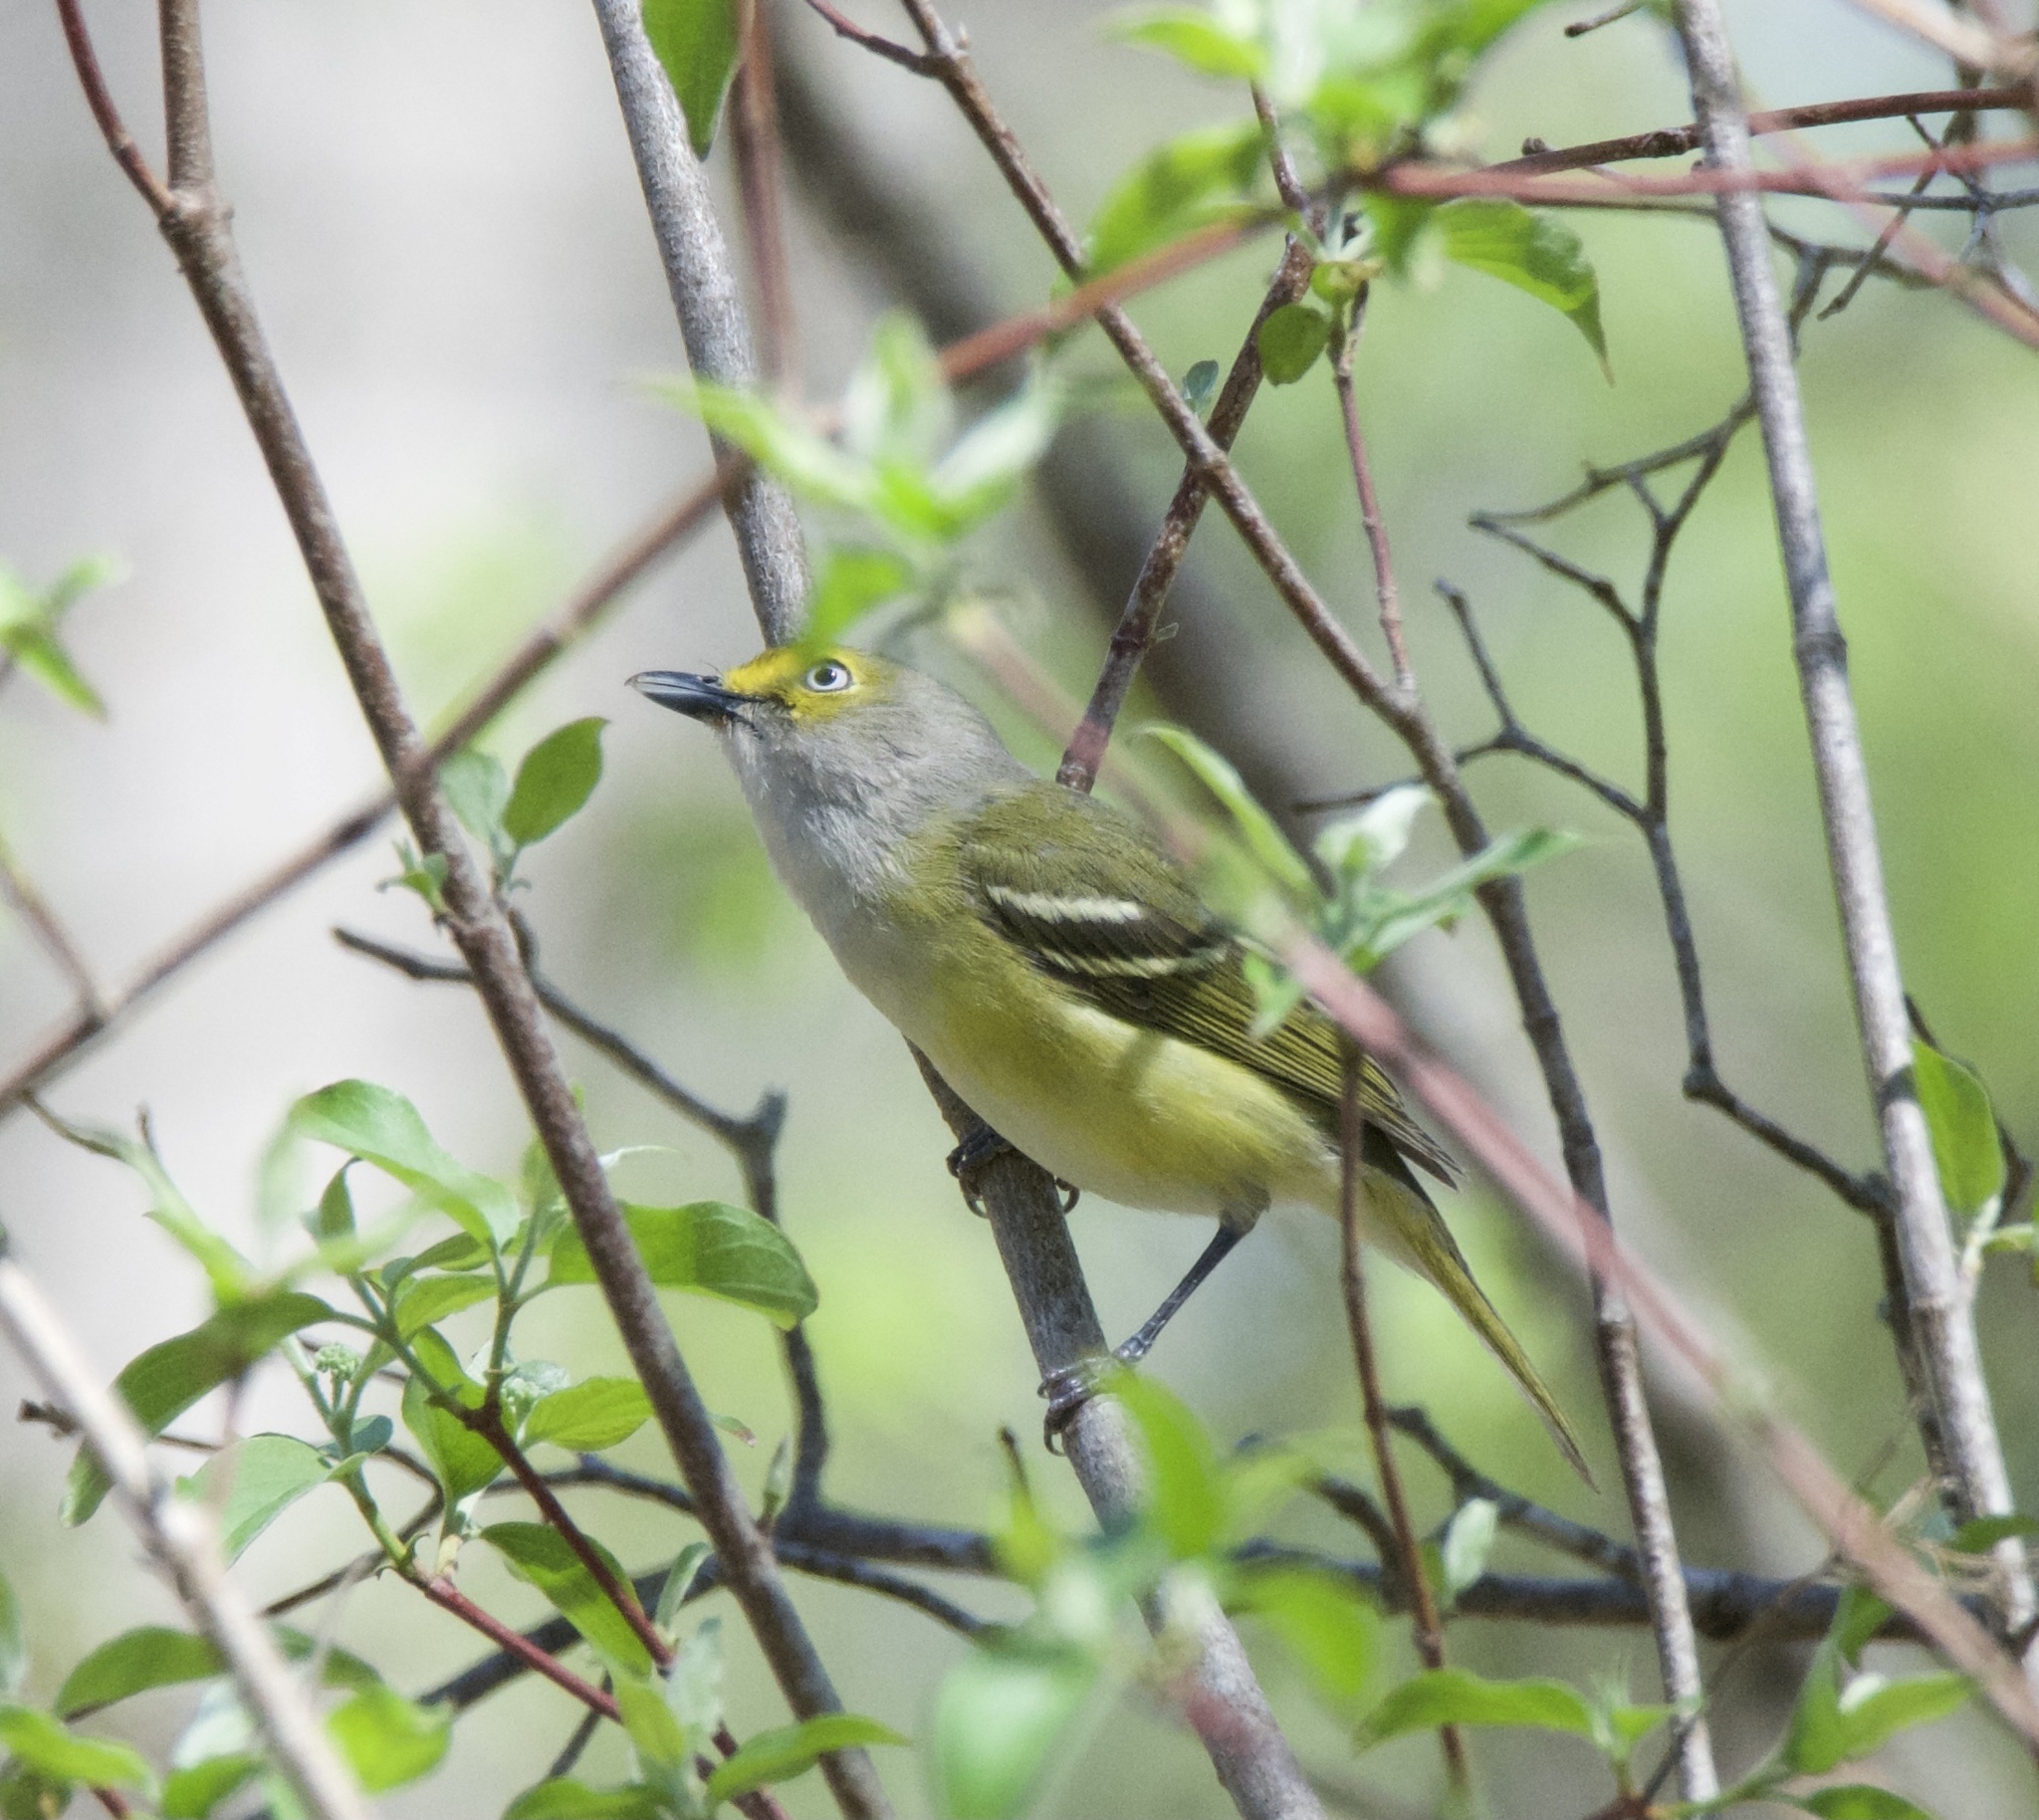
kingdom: Animalia
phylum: Chordata
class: Aves
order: Passeriformes
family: Vireonidae
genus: Vireo
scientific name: Vireo griseus
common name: White-eyed vireo
